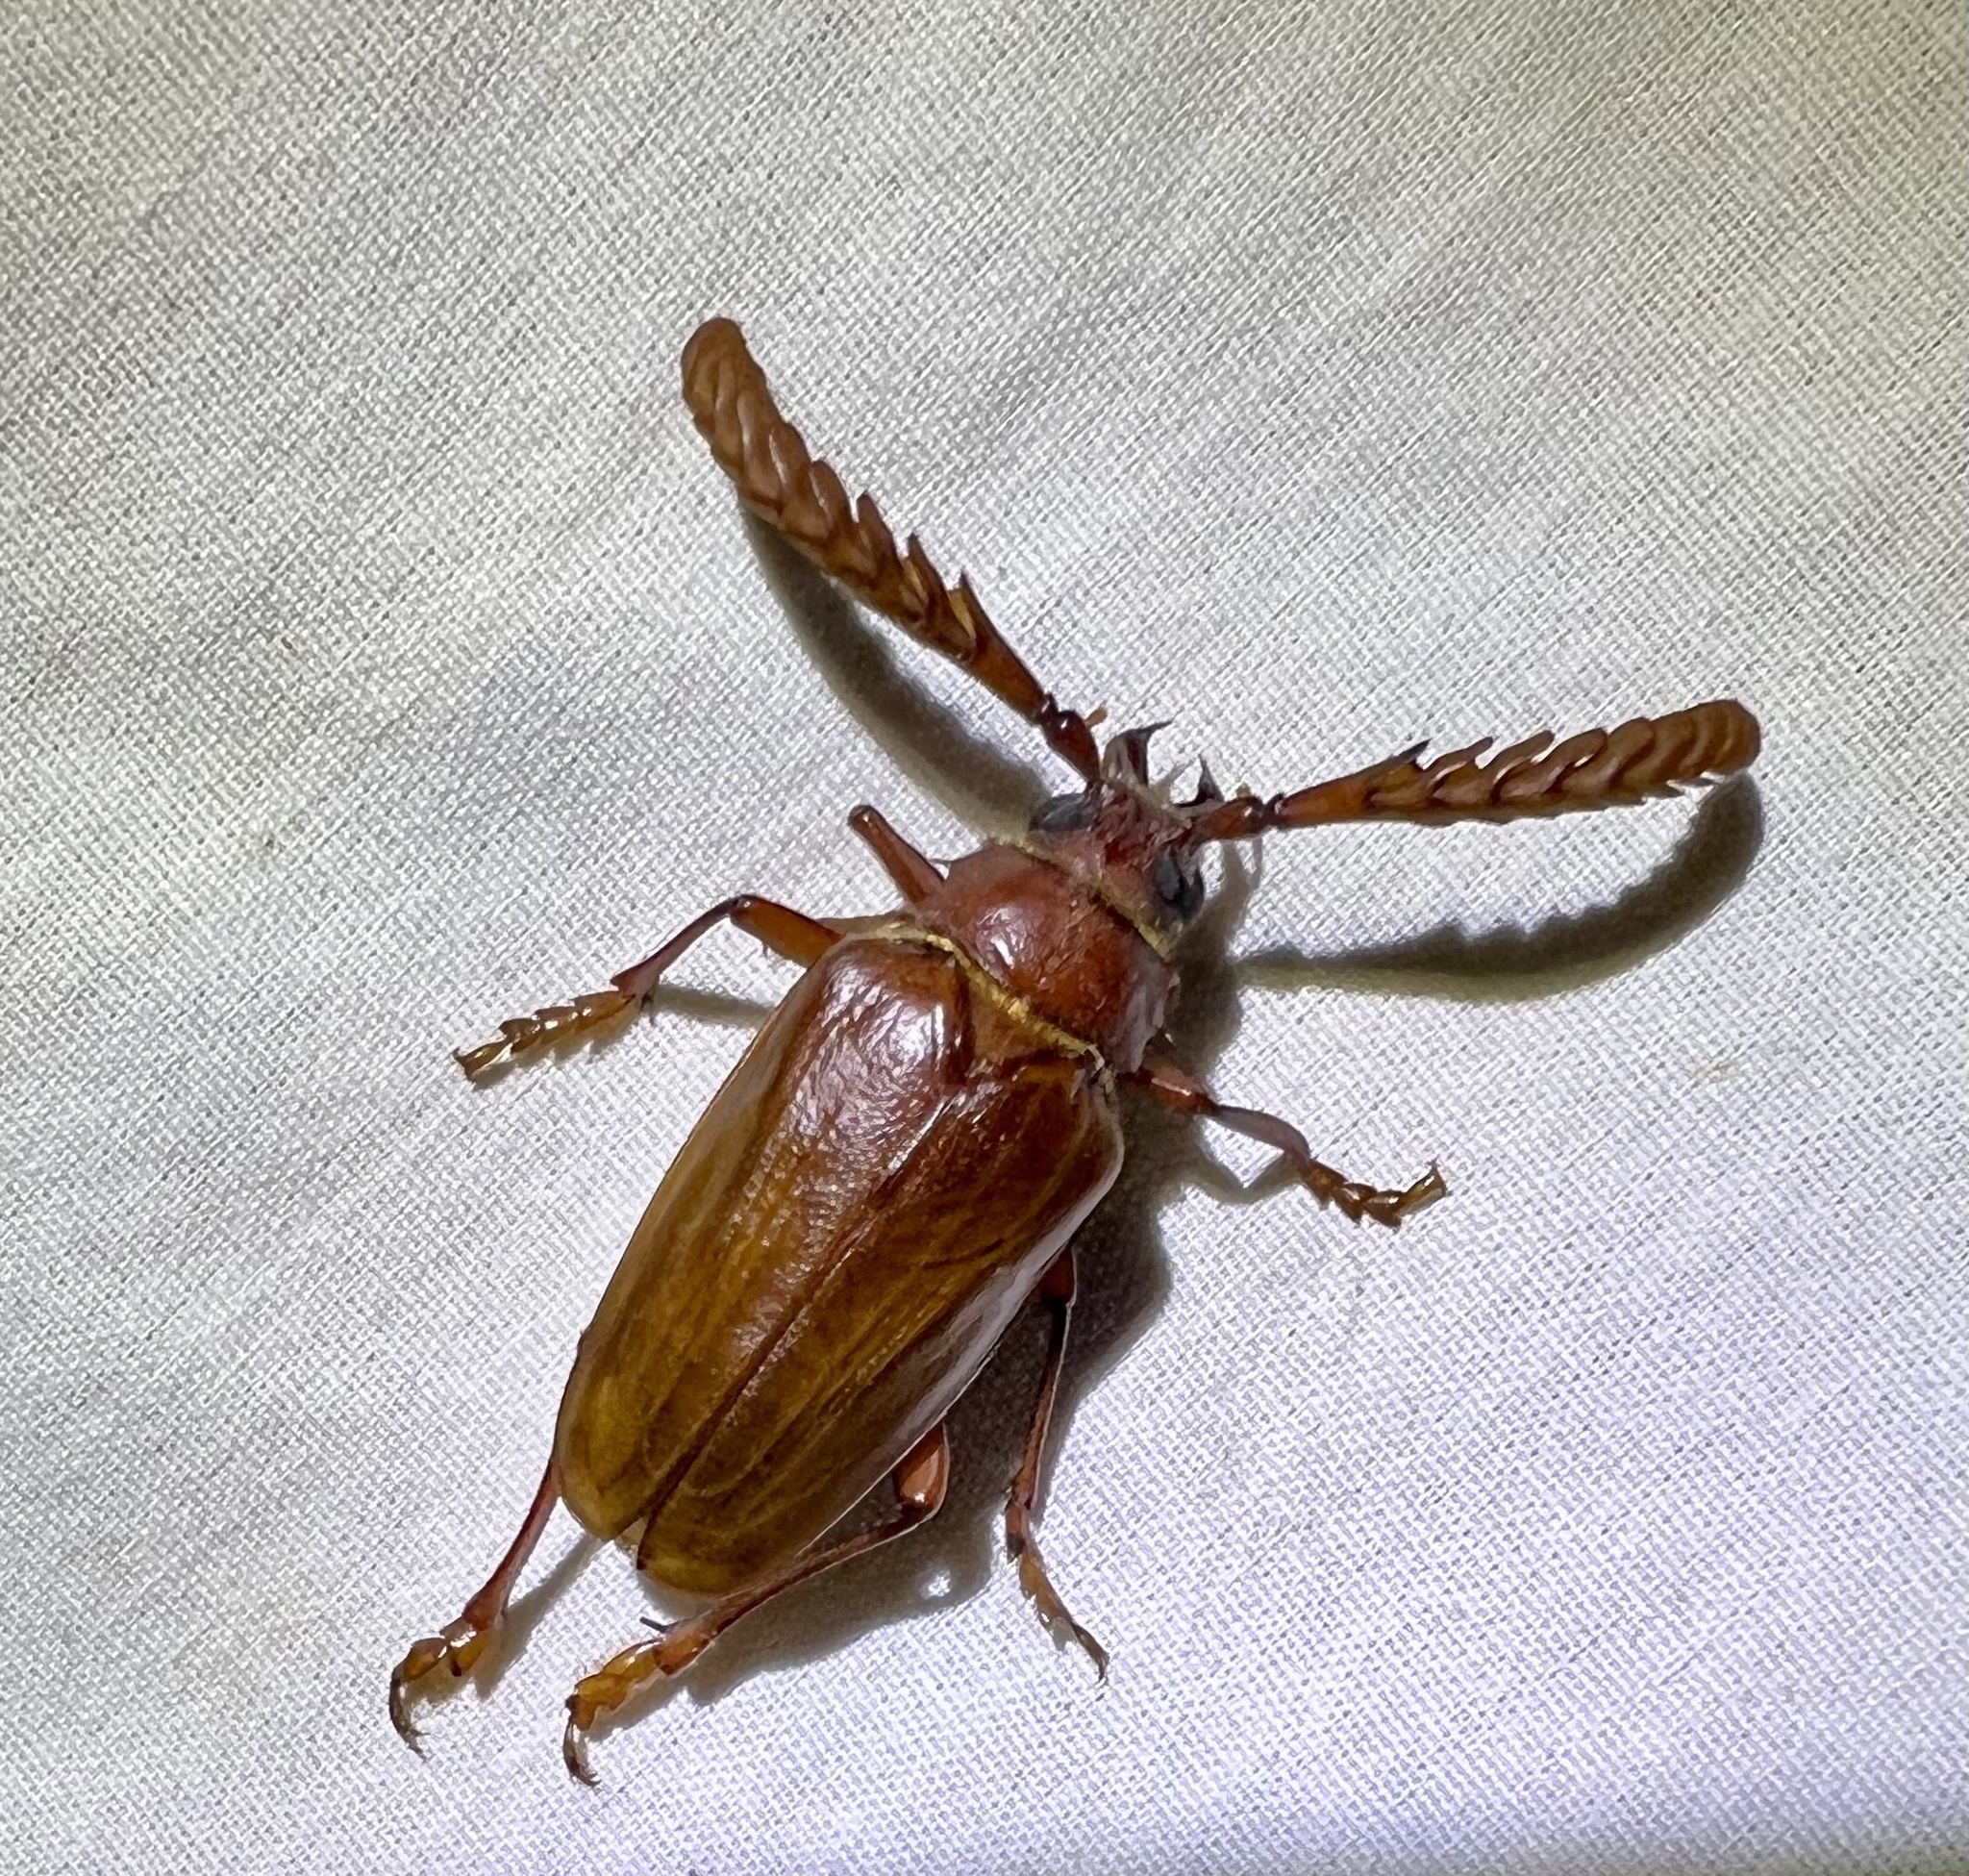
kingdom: Animalia
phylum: Arthropoda
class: Insecta
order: Coleoptera
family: Cerambycidae
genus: Prionus
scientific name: Prionus arenarius
